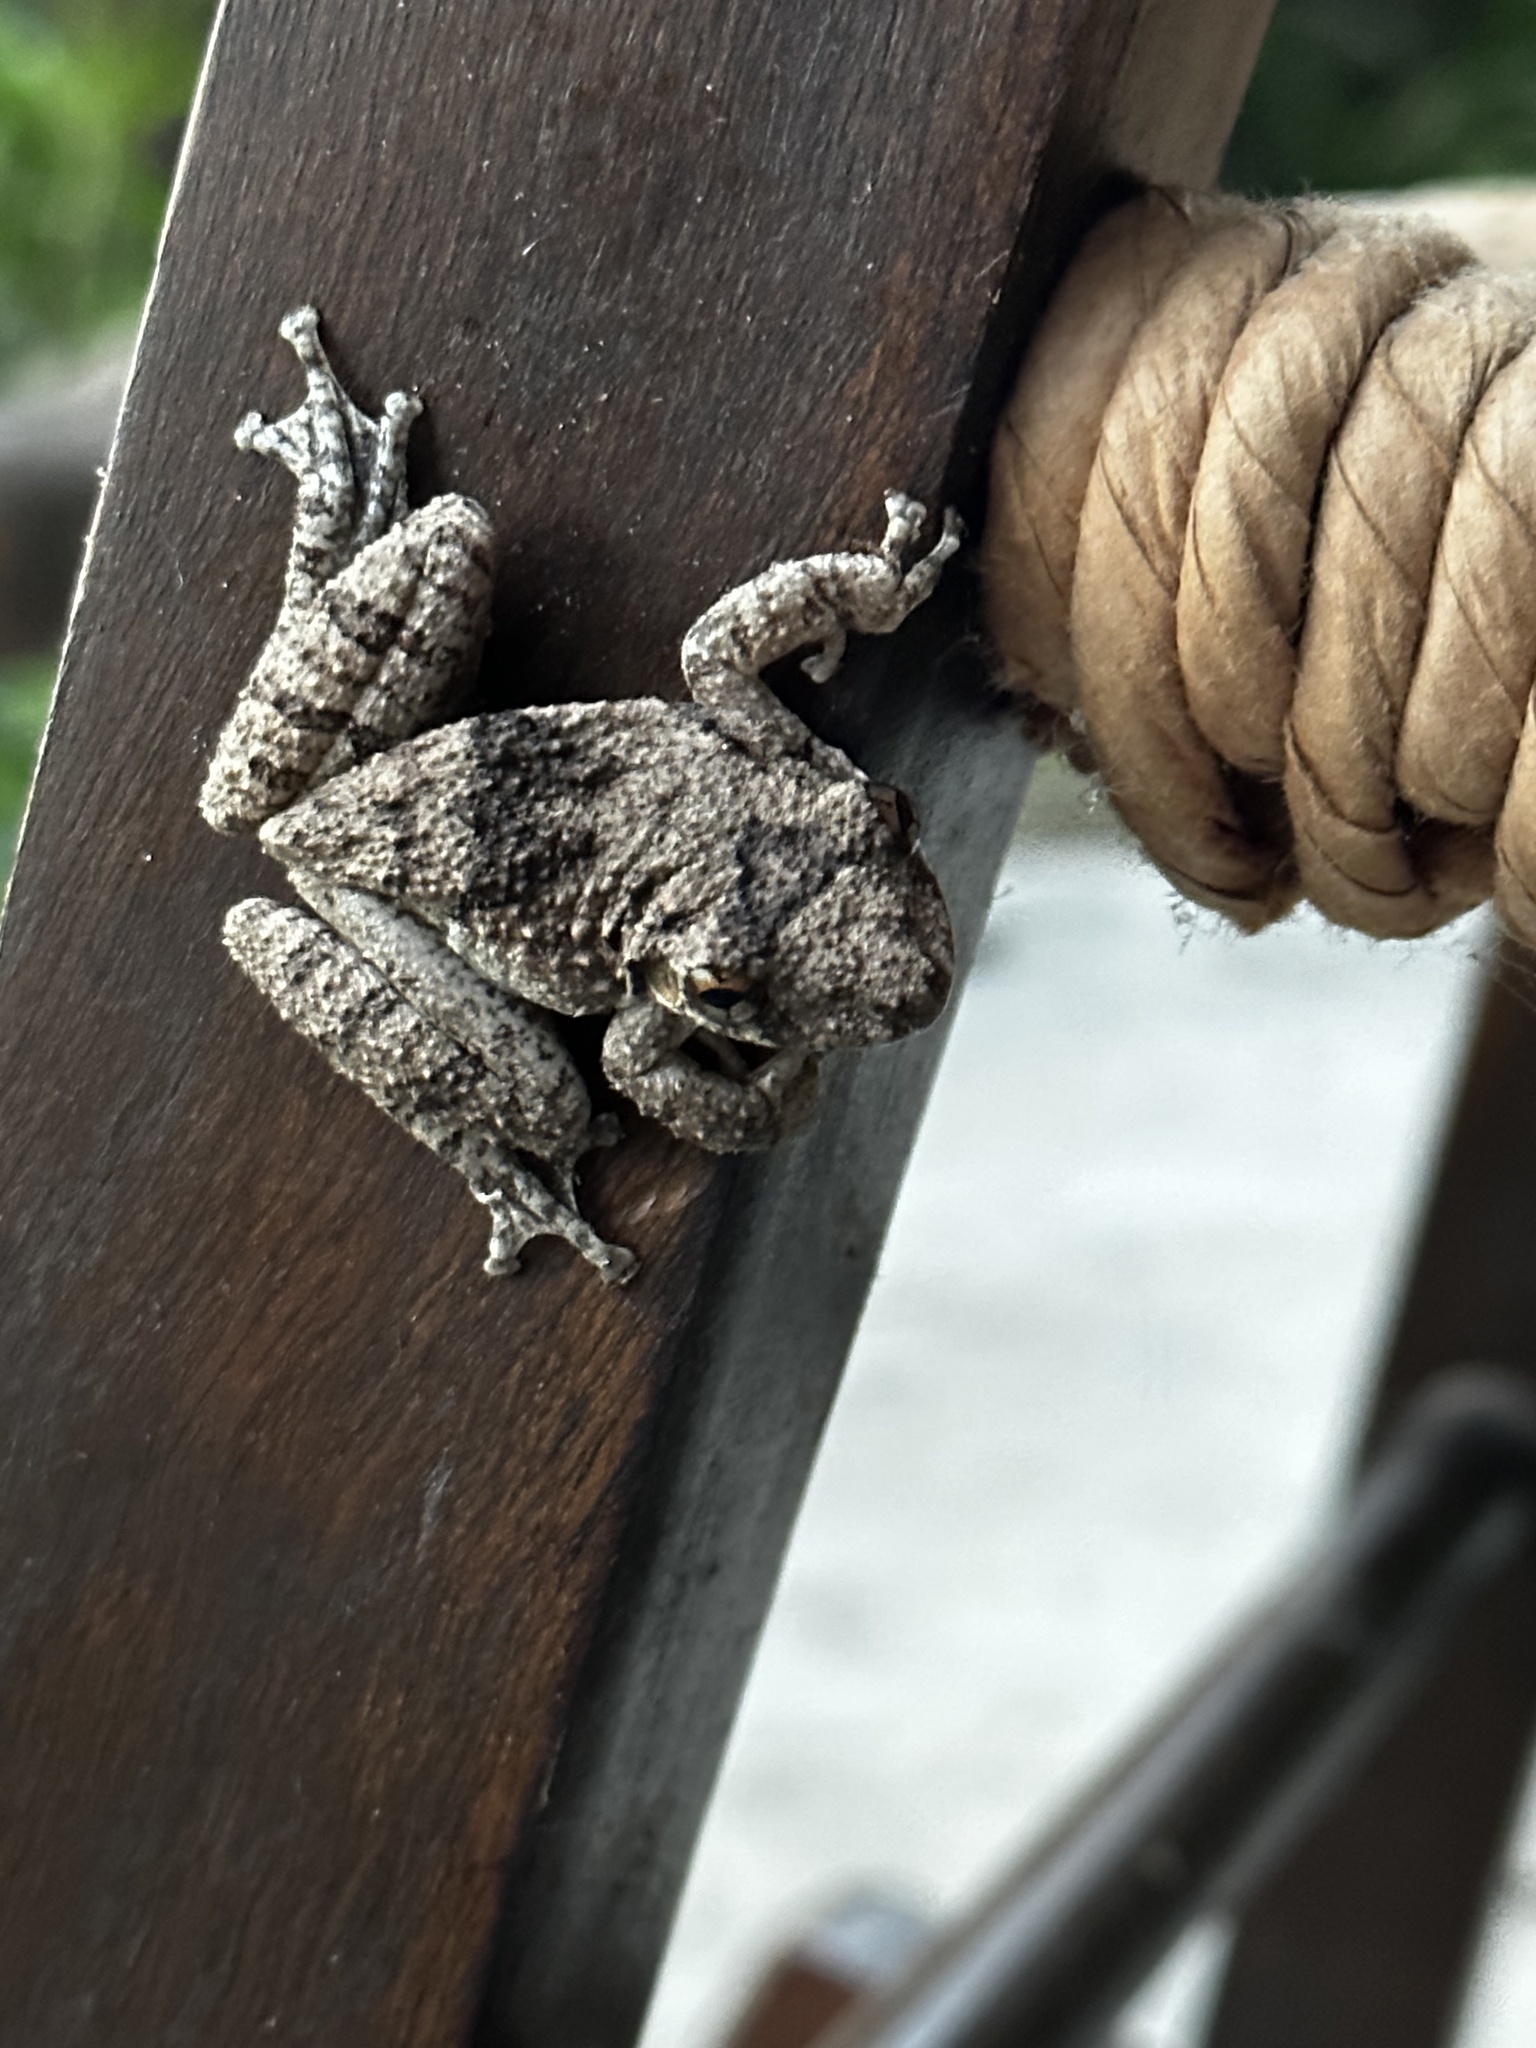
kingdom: Animalia
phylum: Chordata
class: Amphibia
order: Anura
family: Hylidae
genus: Scinax
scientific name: Scinax acuminatus
